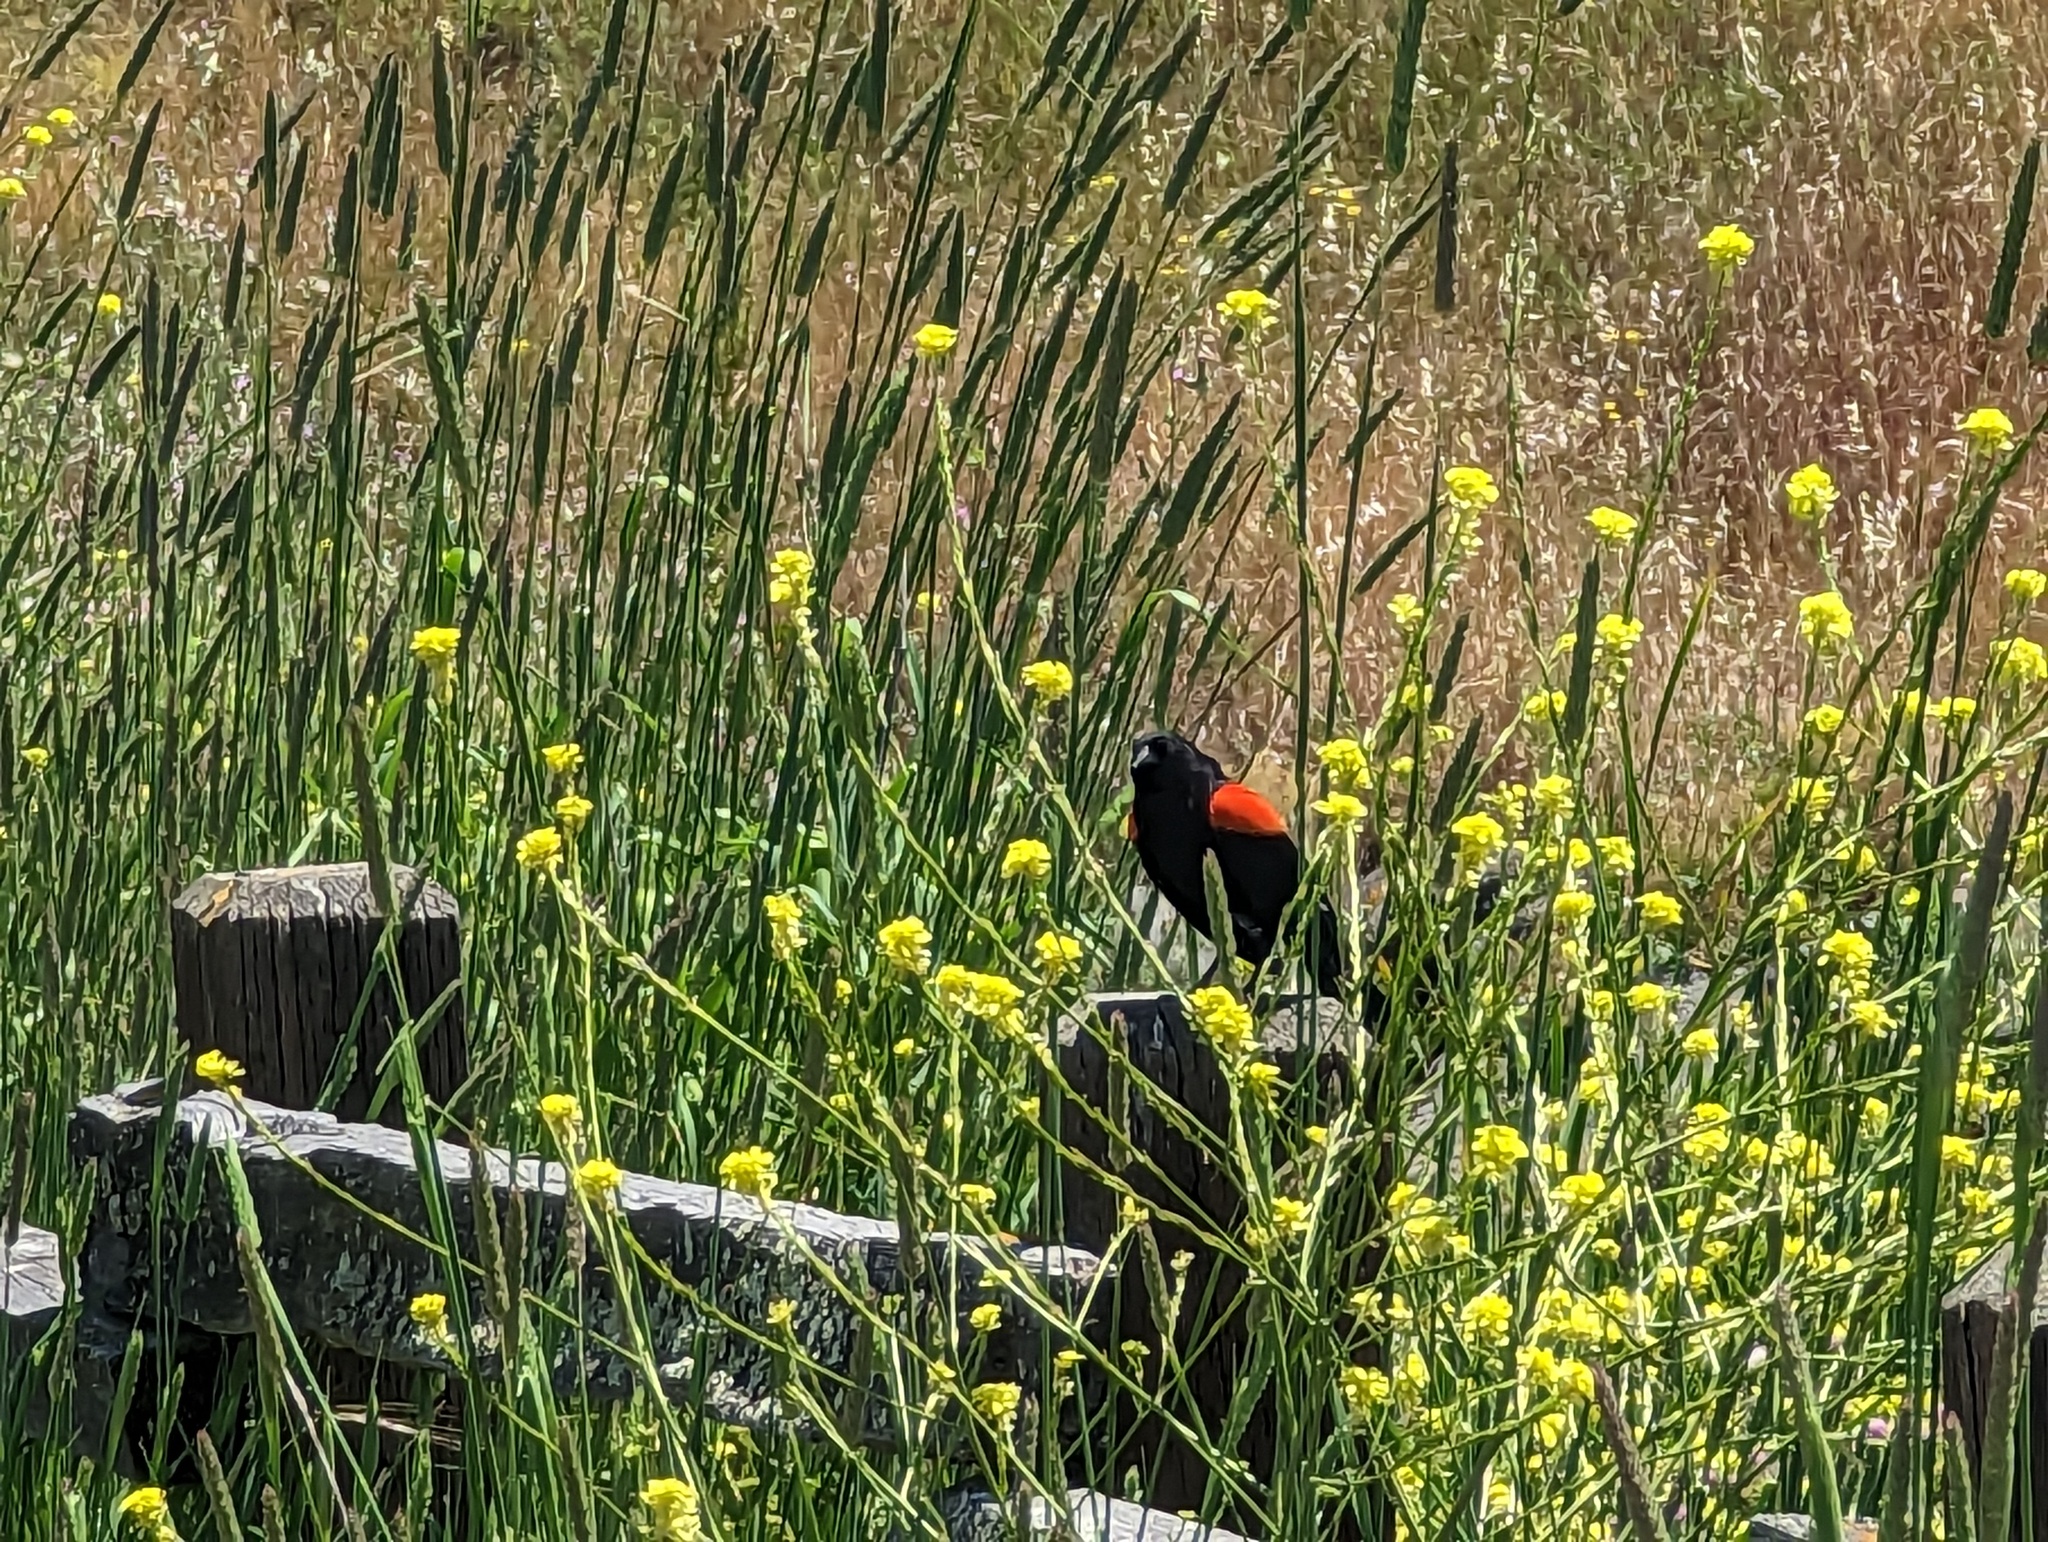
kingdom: Animalia
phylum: Chordata
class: Aves
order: Passeriformes
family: Icteridae
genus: Agelaius
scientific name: Agelaius phoeniceus
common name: Red-winged blackbird
